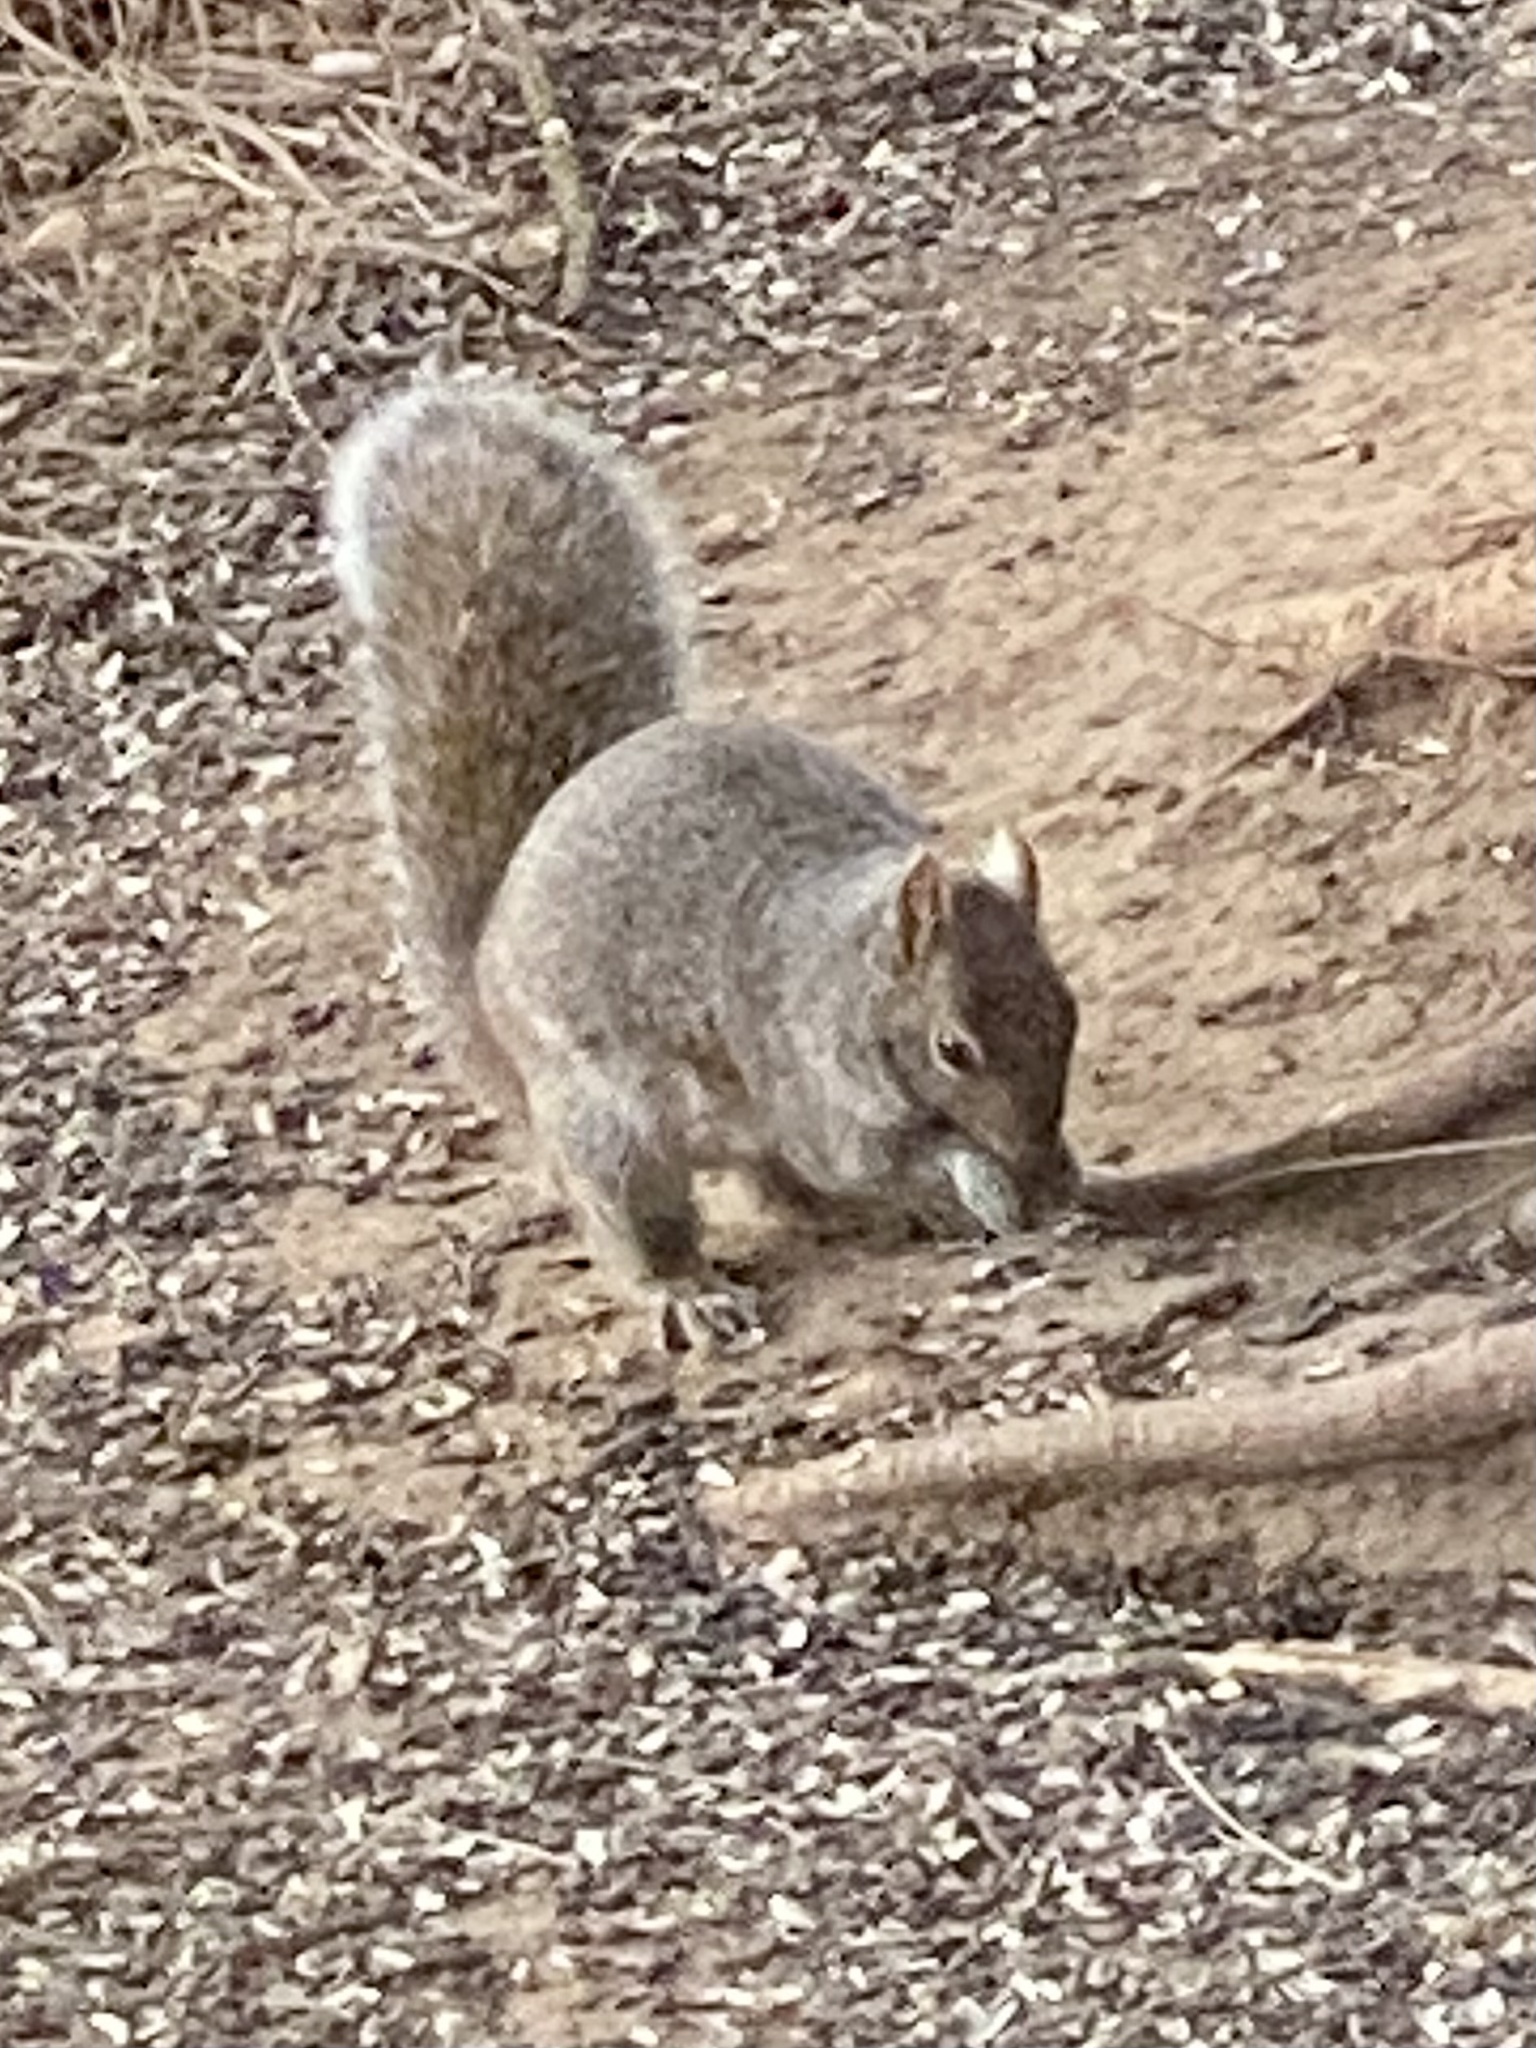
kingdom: Animalia
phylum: Chordata
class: Mammalia
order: Rodentia
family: Sciuridae
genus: Sciurus
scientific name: Sciurus carolinensis
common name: Eastern gray squirrel
